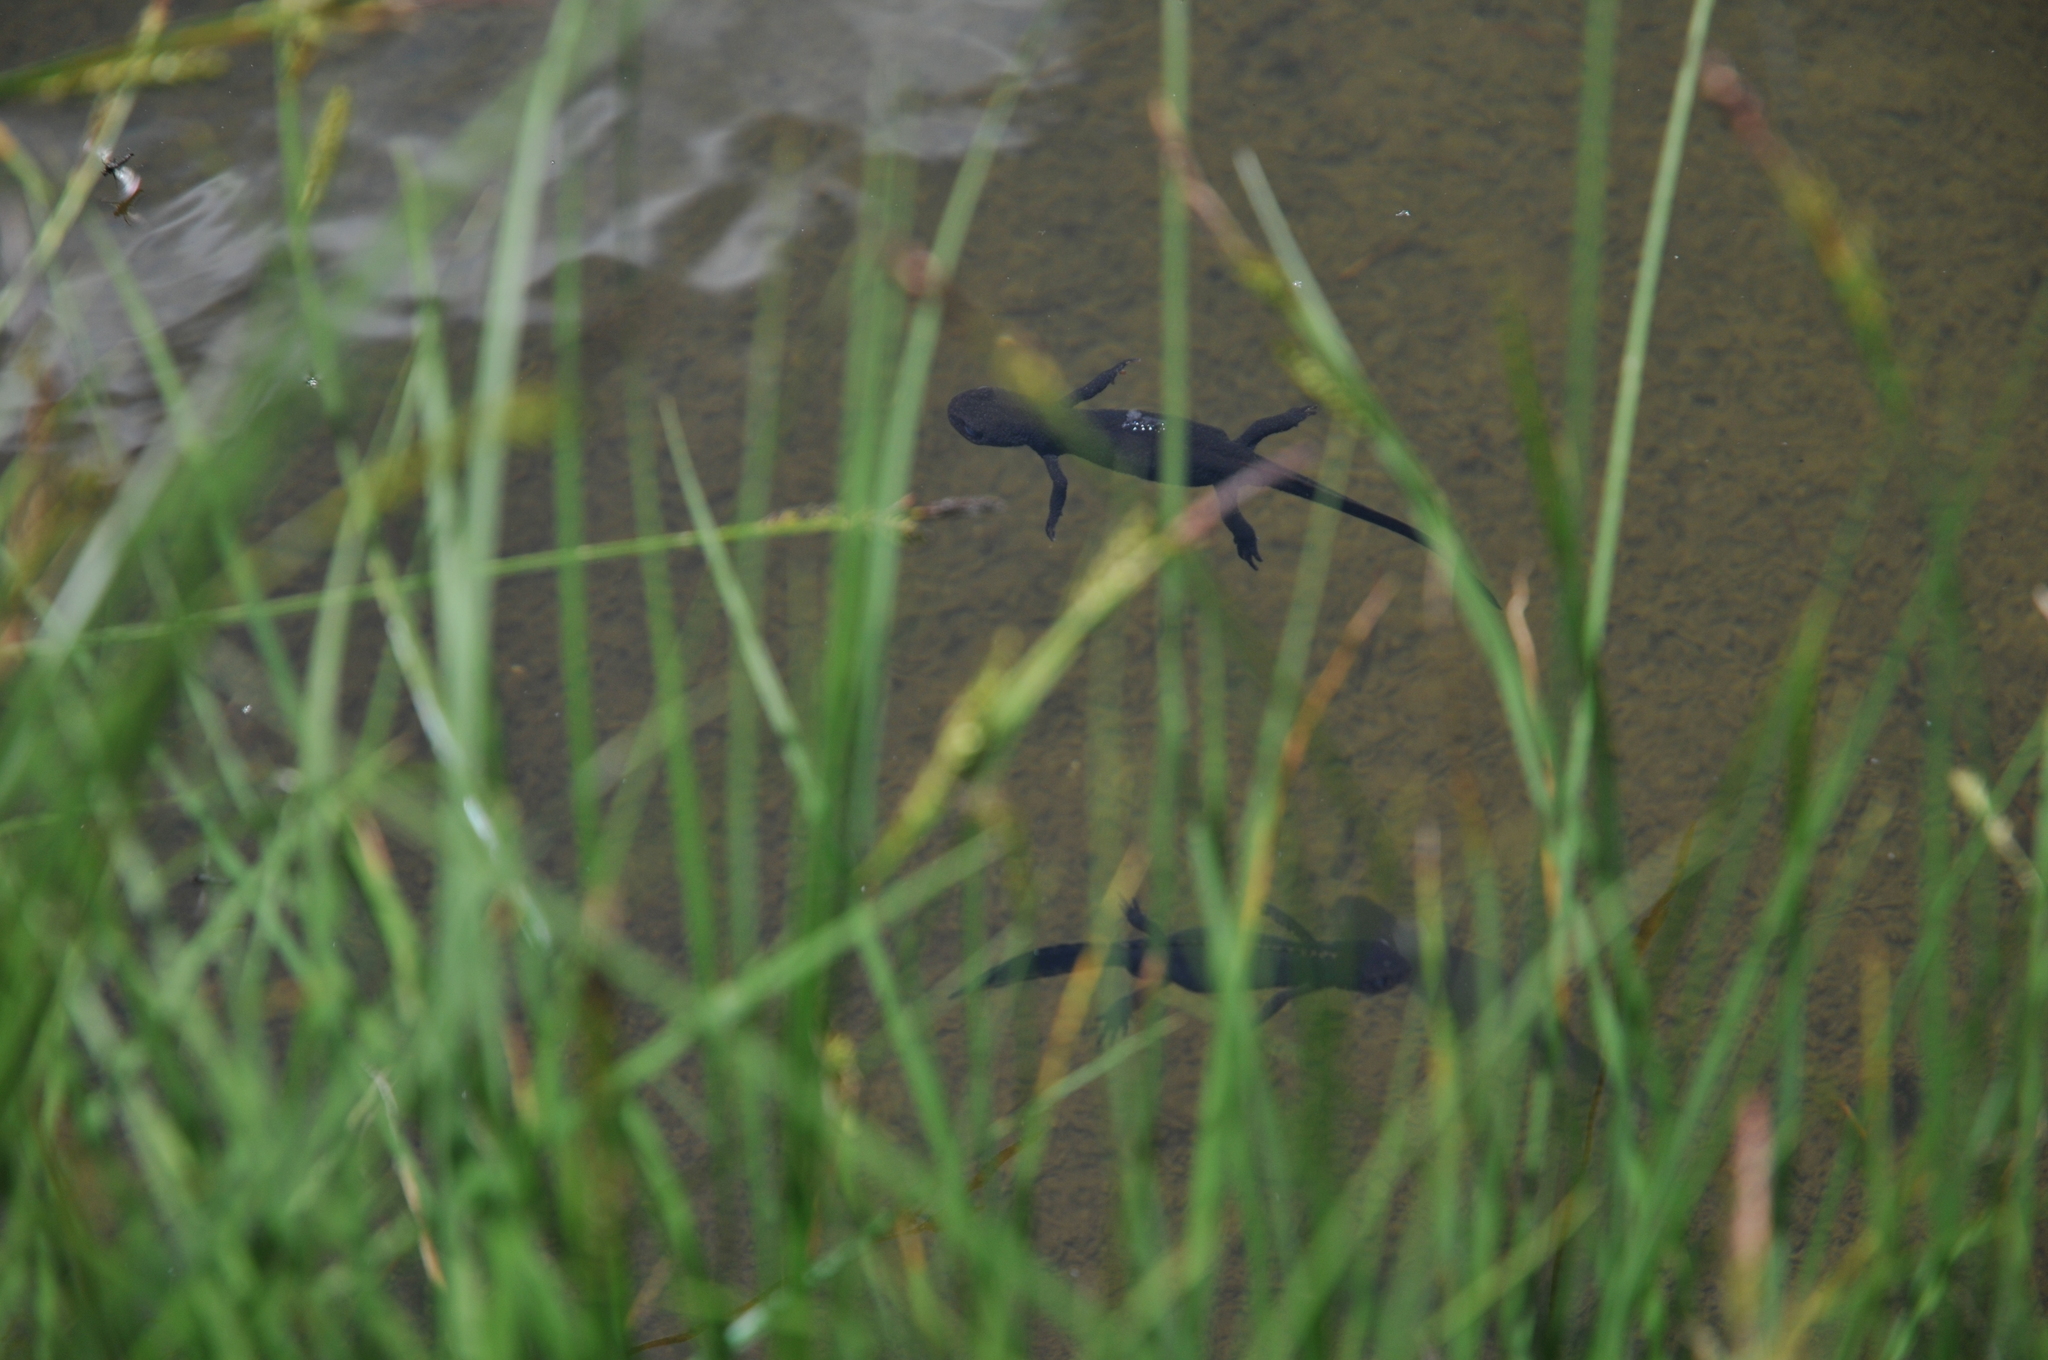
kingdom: Animalia
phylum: Chordata
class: Amphibia
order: Caudata
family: Salamandridae
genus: Ichthyosaura
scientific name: Ichthyosaura alpestris
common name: Alpine newt
